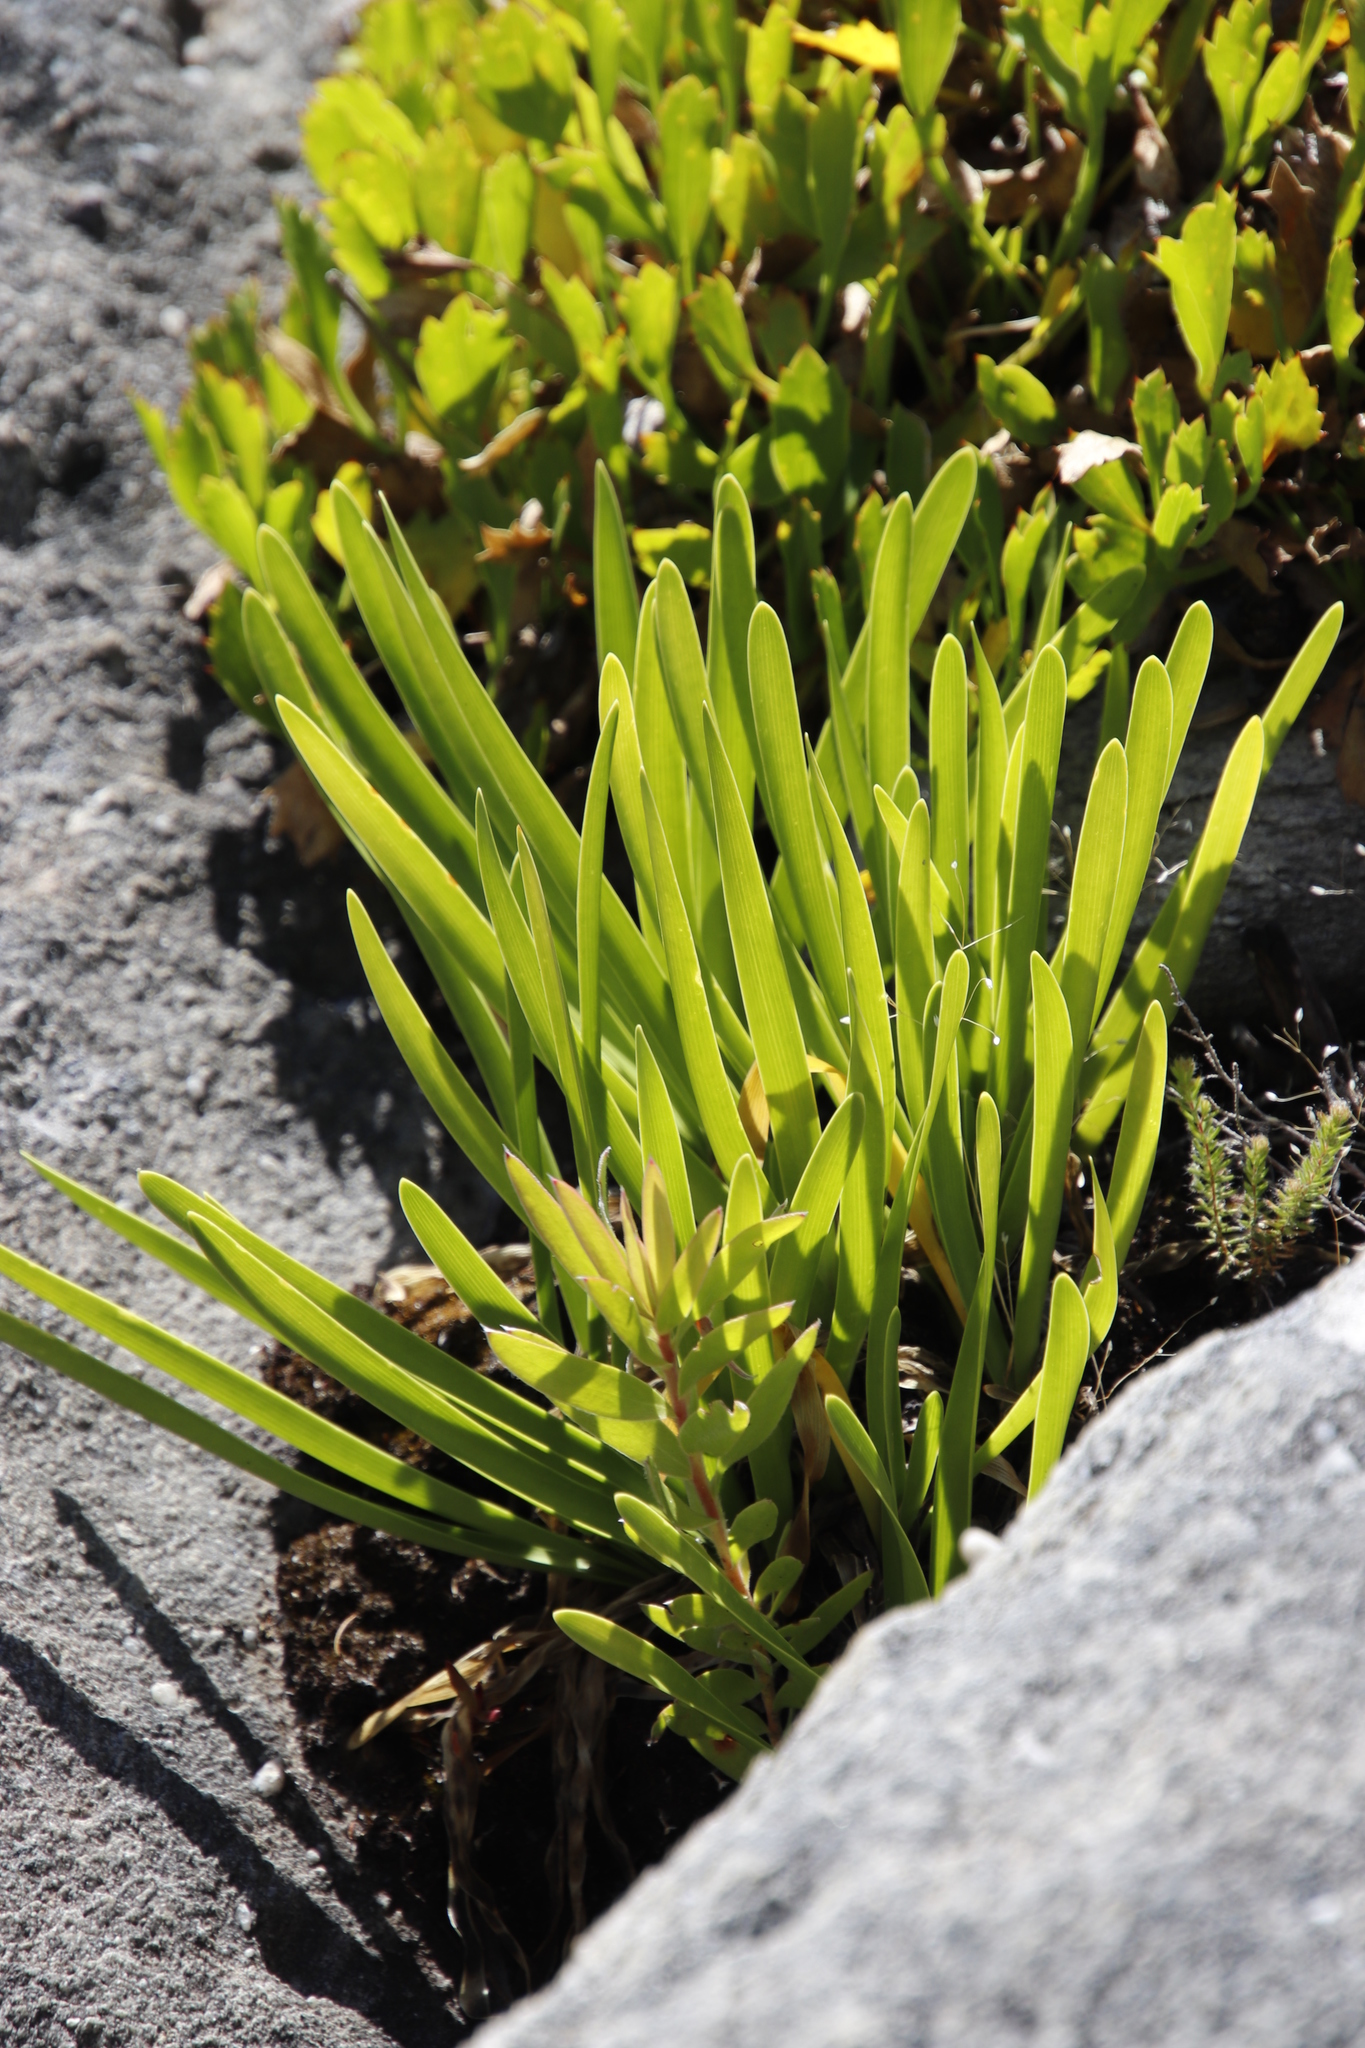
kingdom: Plantae
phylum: Tracheophyta
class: Liliopsida
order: Asparagales
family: Amaryllidaceae
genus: Agapanthus
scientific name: Agapanthus africanus
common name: Lily-of-the-nile
